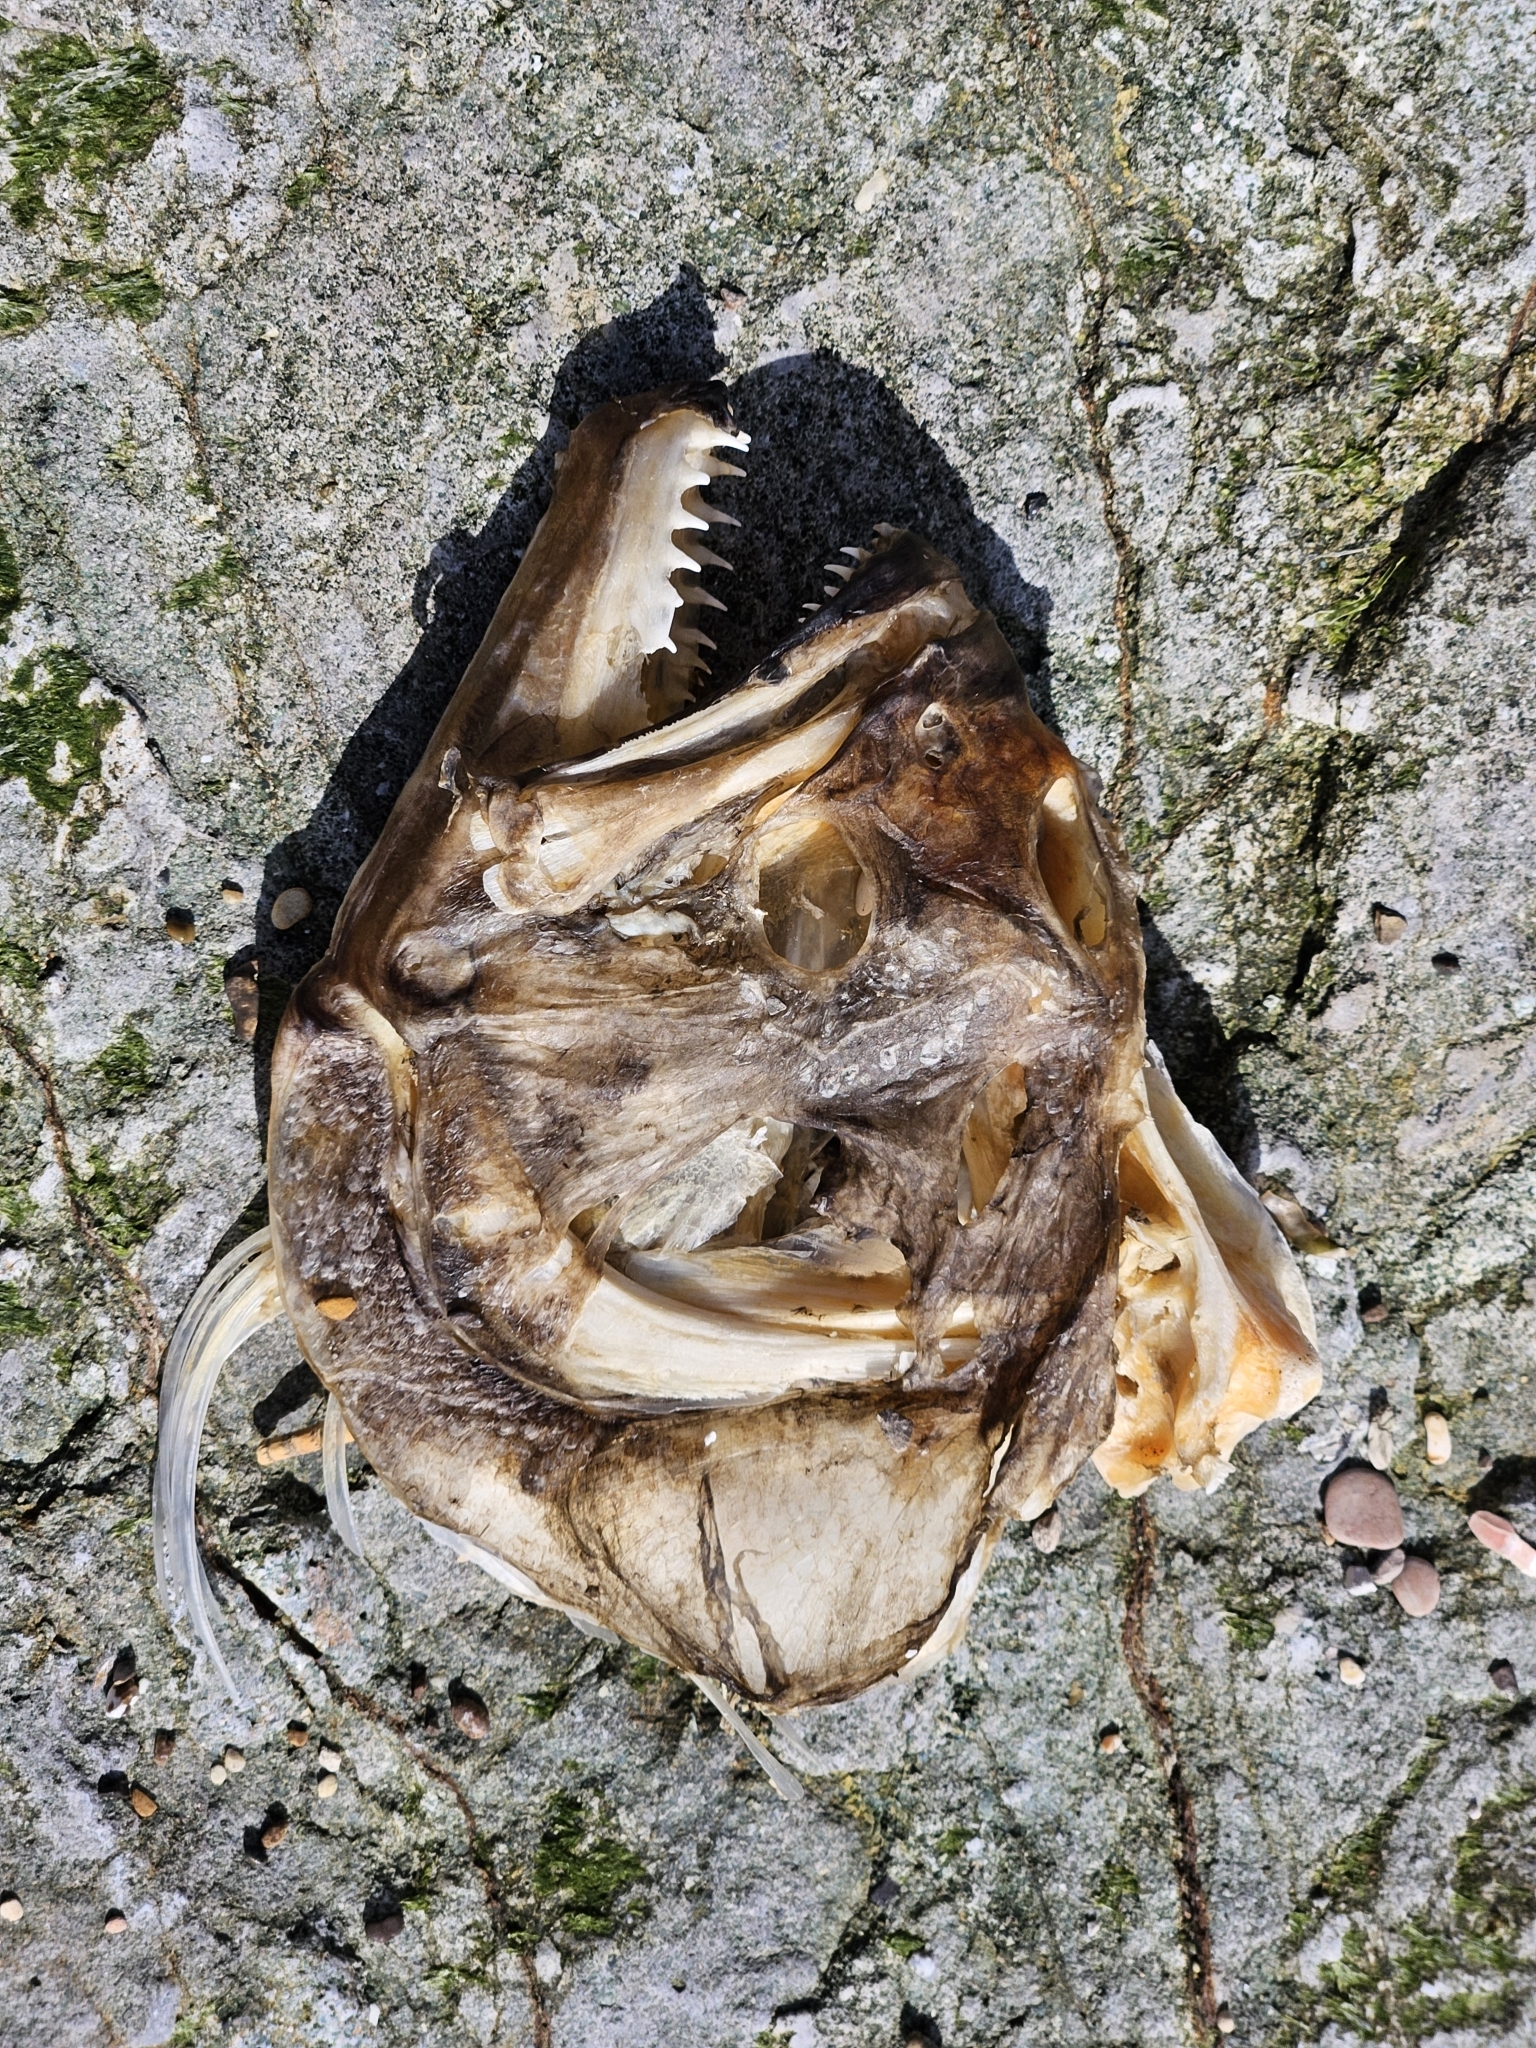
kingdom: Animalia
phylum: Chordata
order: Pleuronectiformes
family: Paralichthyidae
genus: Paralichthys
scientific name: Paralichthys californicus
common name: California halibut
